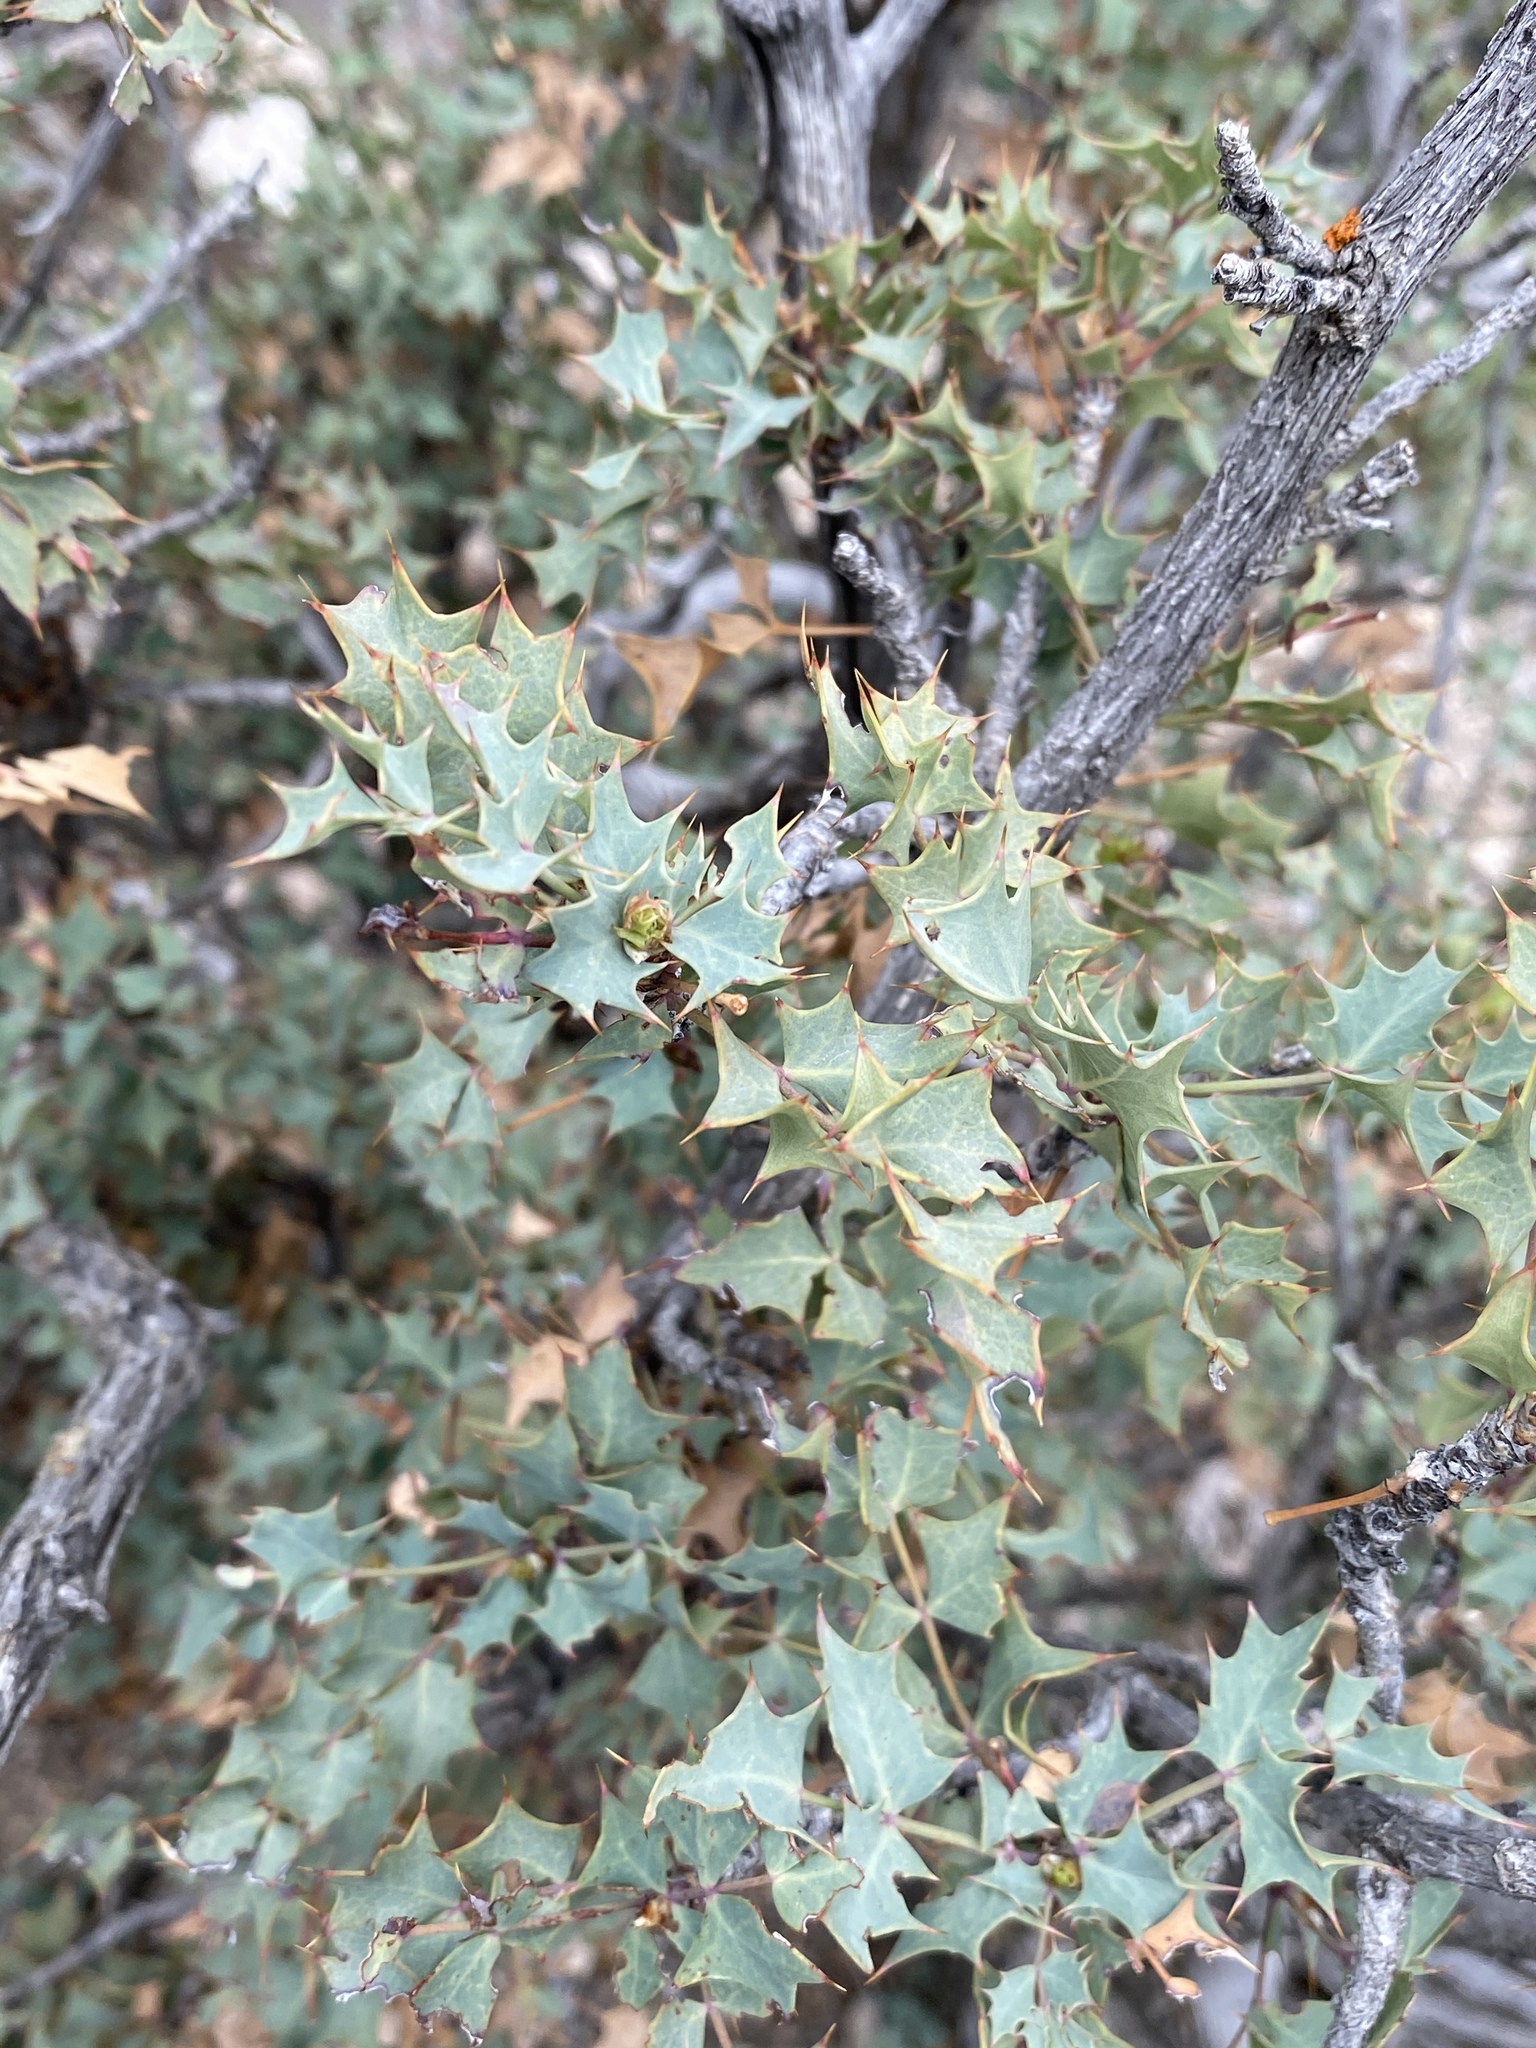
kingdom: Plantae
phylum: Tracheophyta
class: Magnoliopsida
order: Ranunculales
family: Berberidaceae
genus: Alloberberis
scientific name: Alloberberis fremontii
